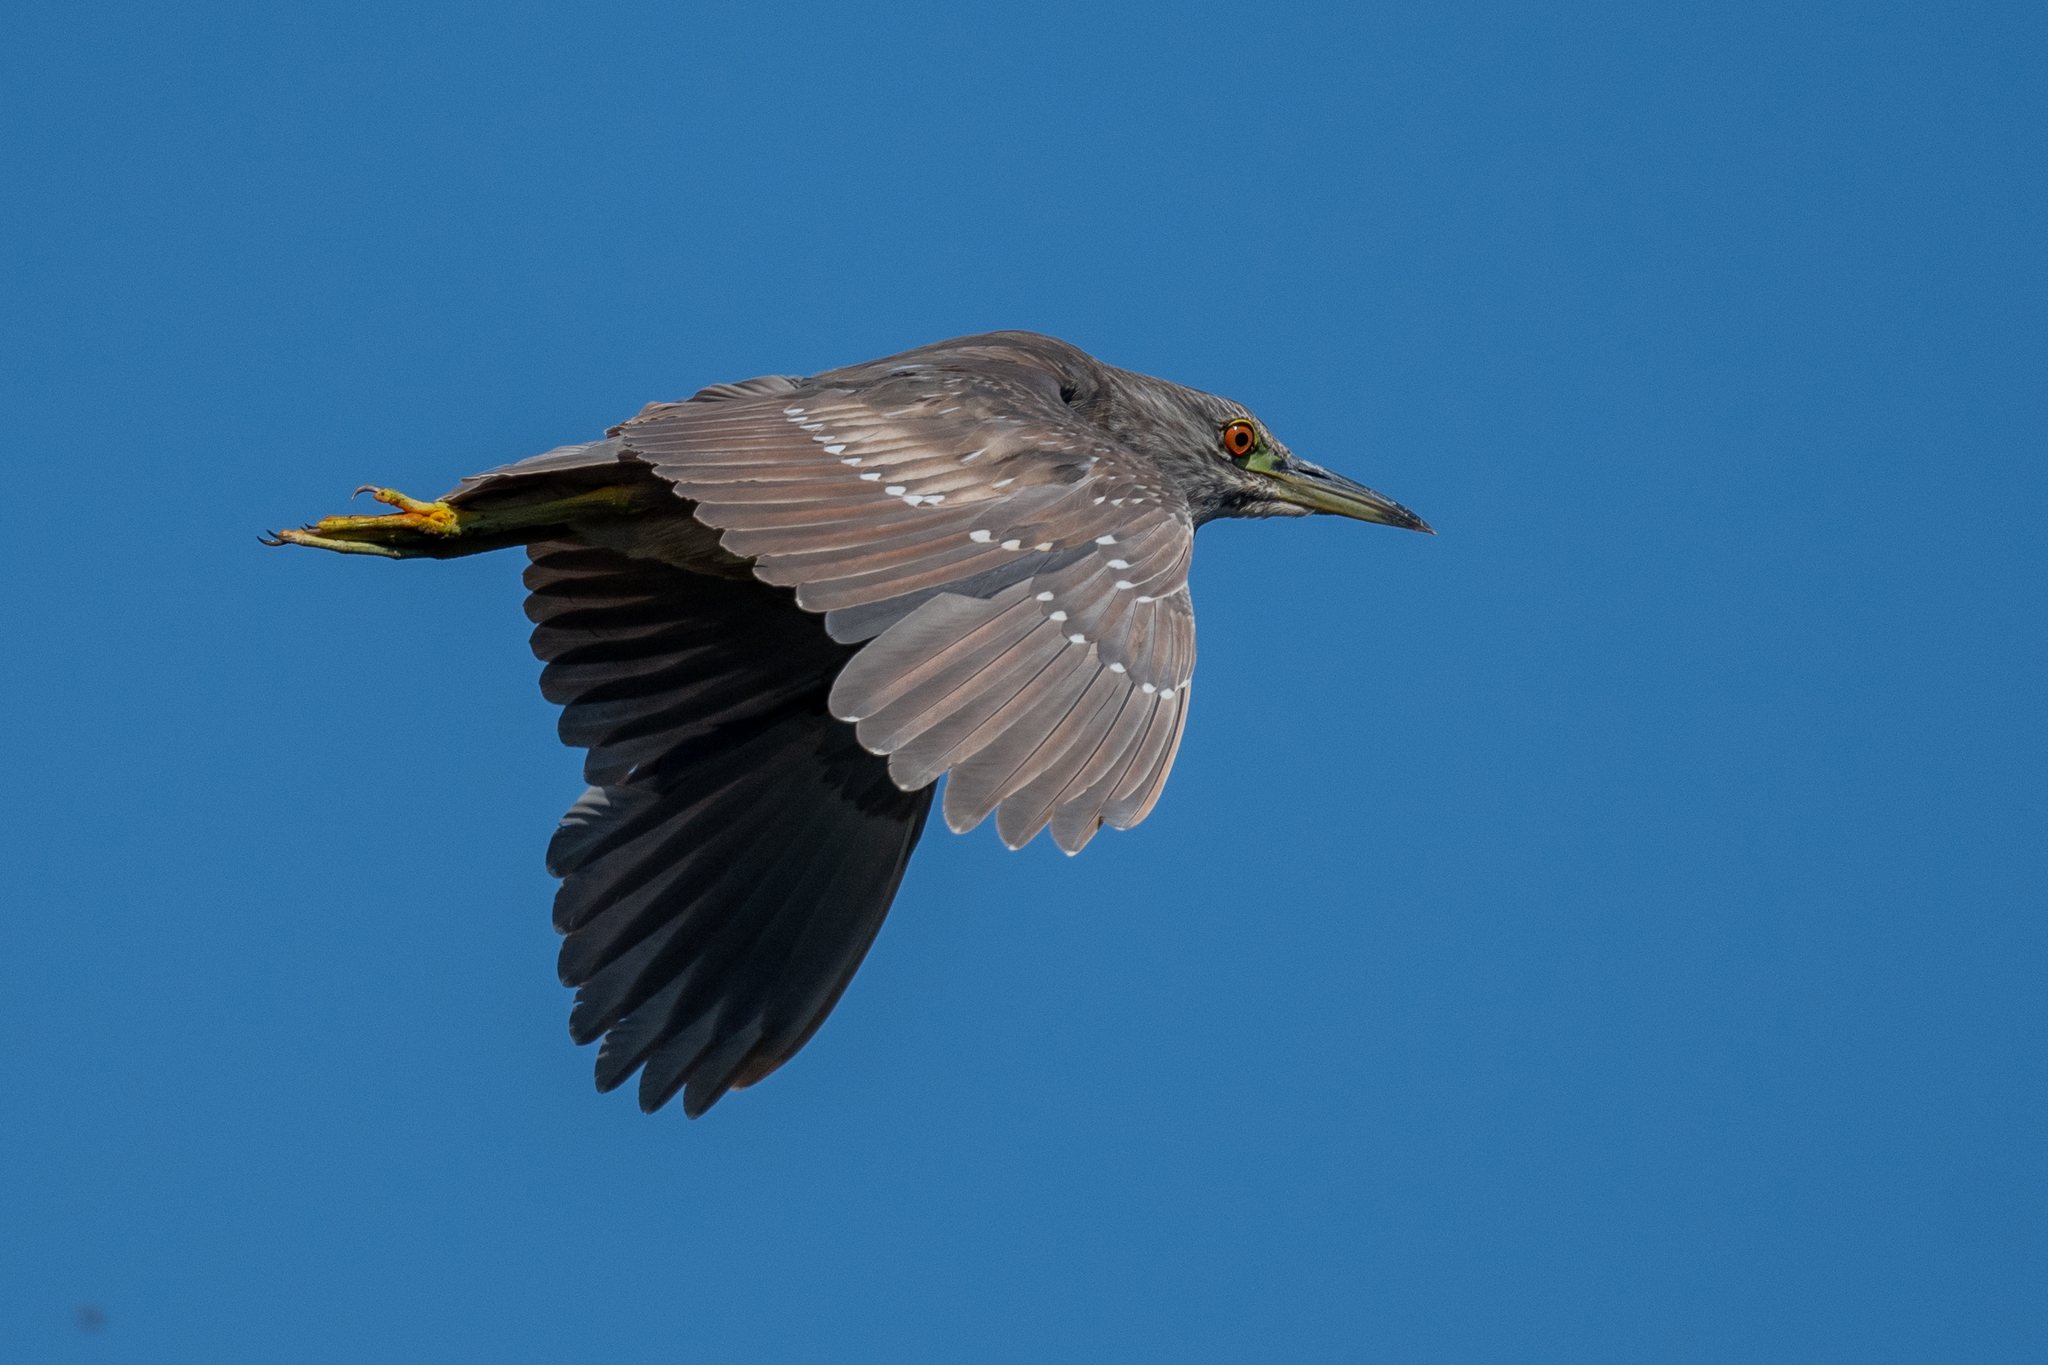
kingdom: Animalia
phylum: Chordata
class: Aves
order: Pelecaniformes
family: Ardeidae
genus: Nycticorax
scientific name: Nycticorax nycticorax
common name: Black-crowned night heron
